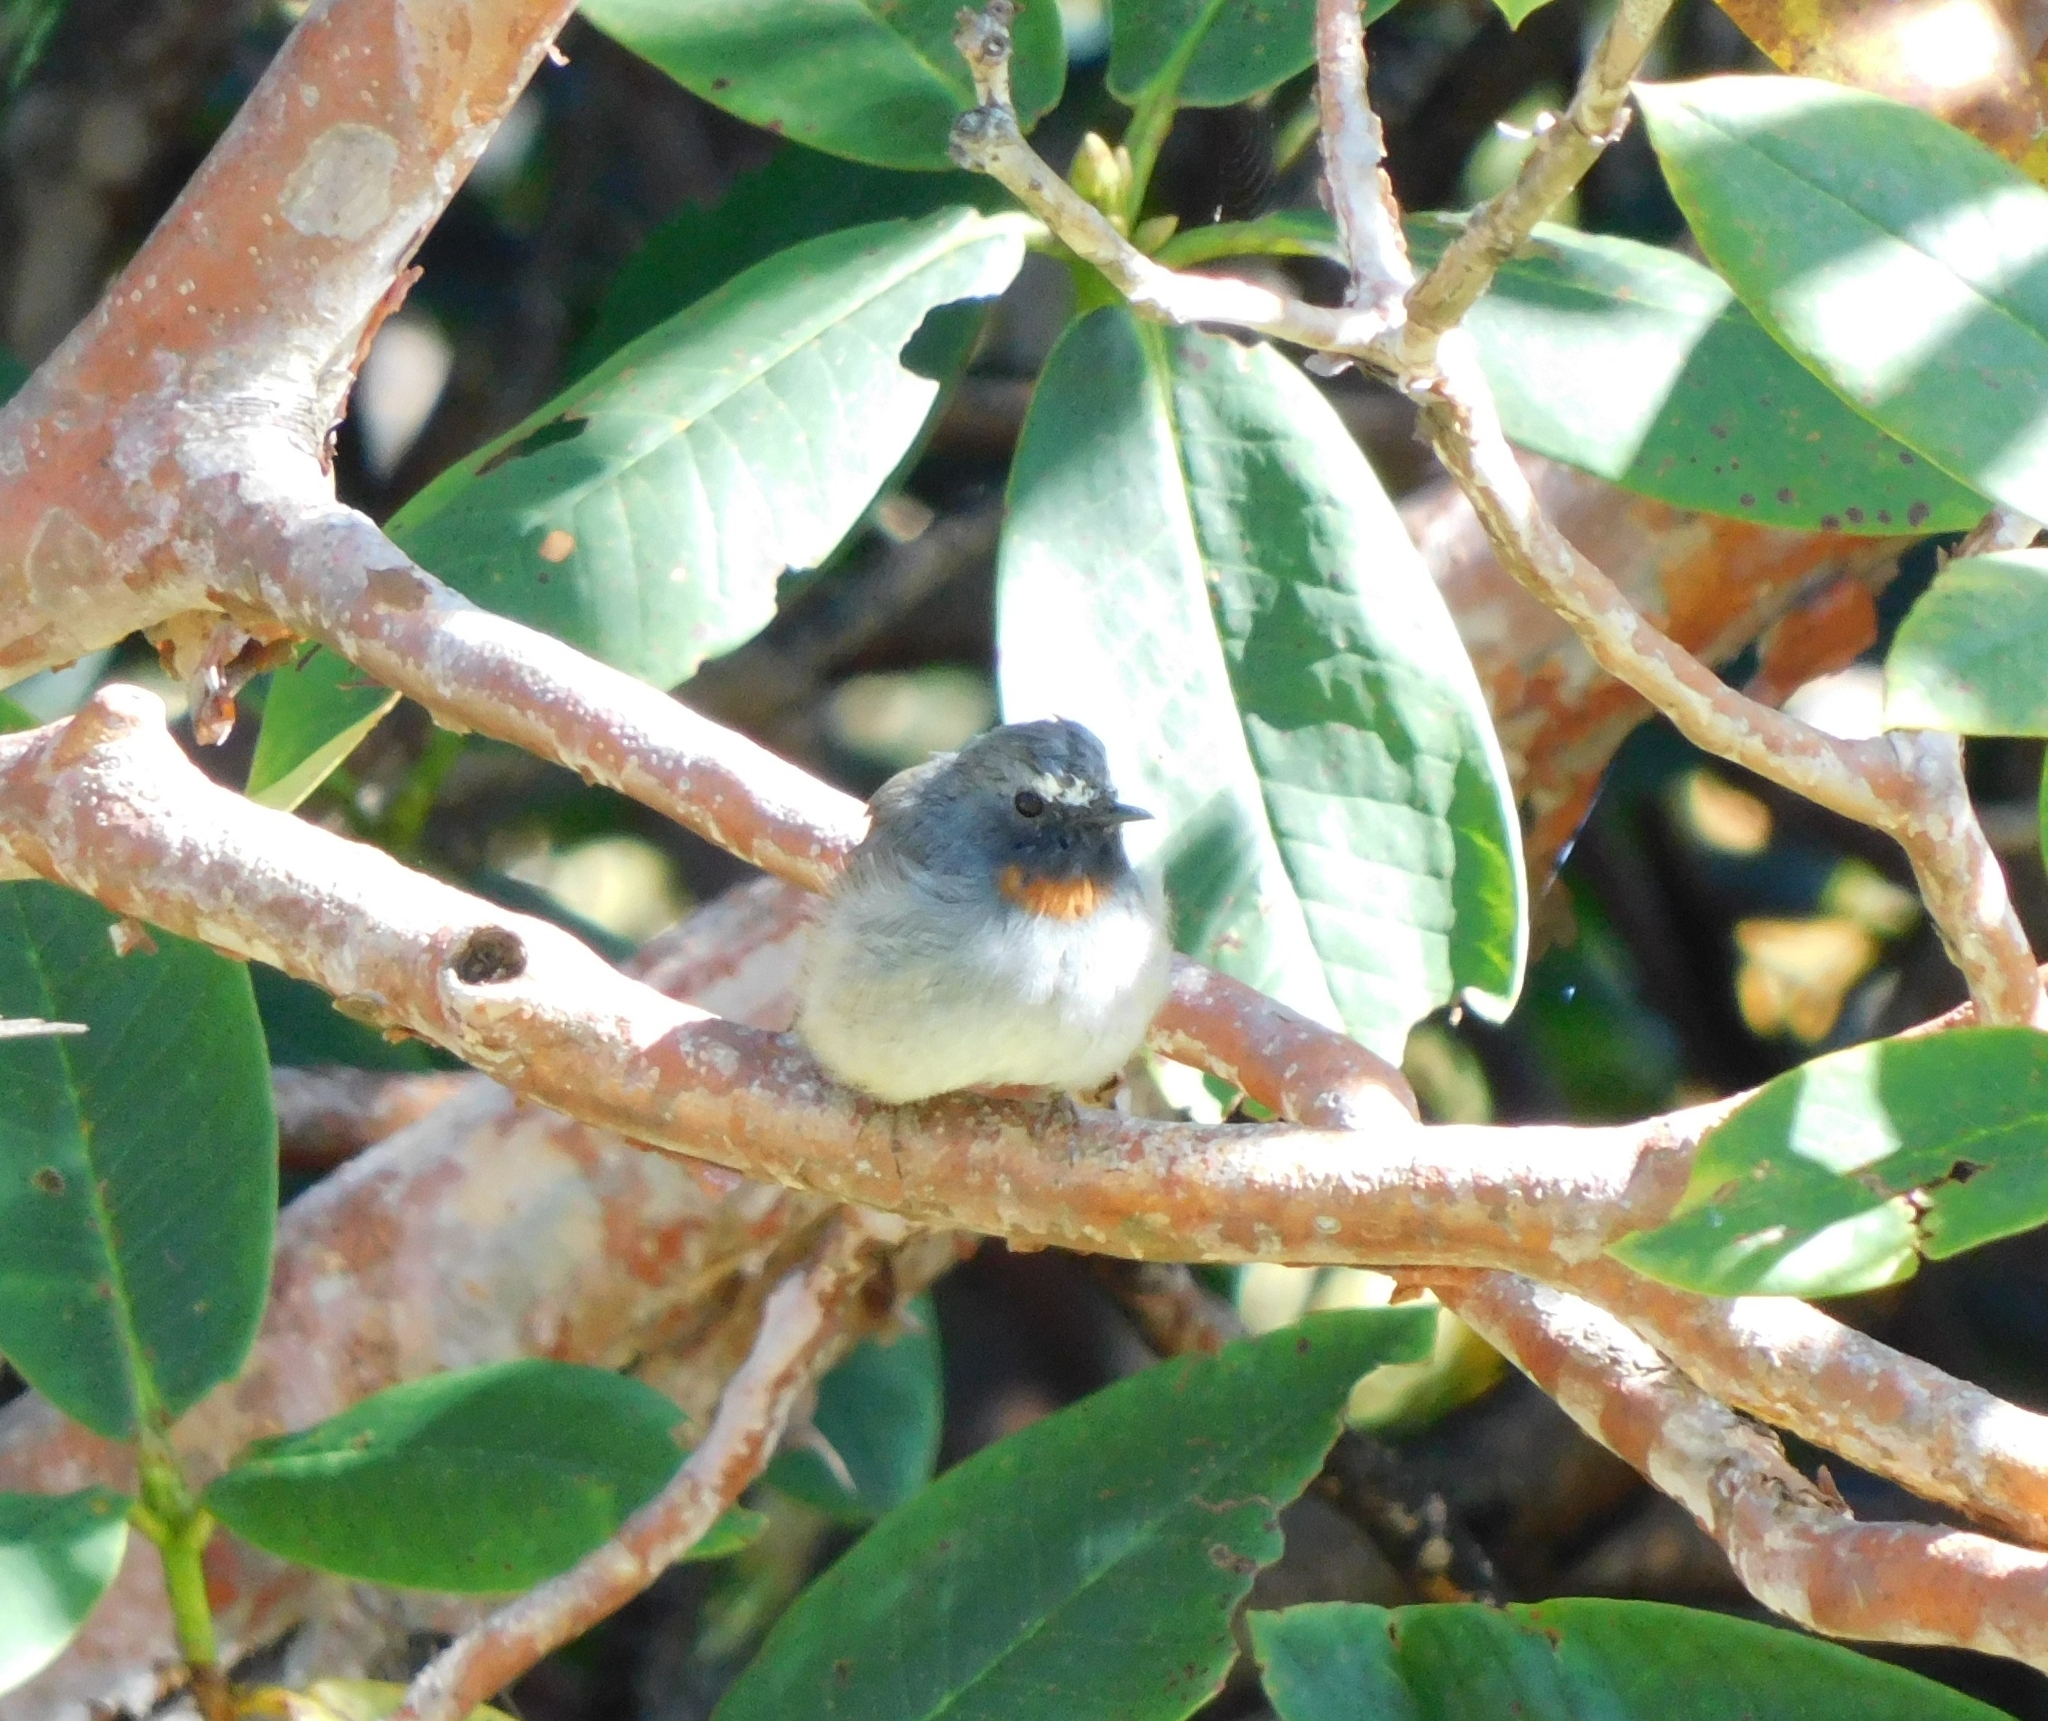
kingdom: Animalia
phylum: Chordata
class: Aves
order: Passeriformes
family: Muscicapidae
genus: Ficedula
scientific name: Ficedula strophiata
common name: Rufous-gorgeted flycatcher
